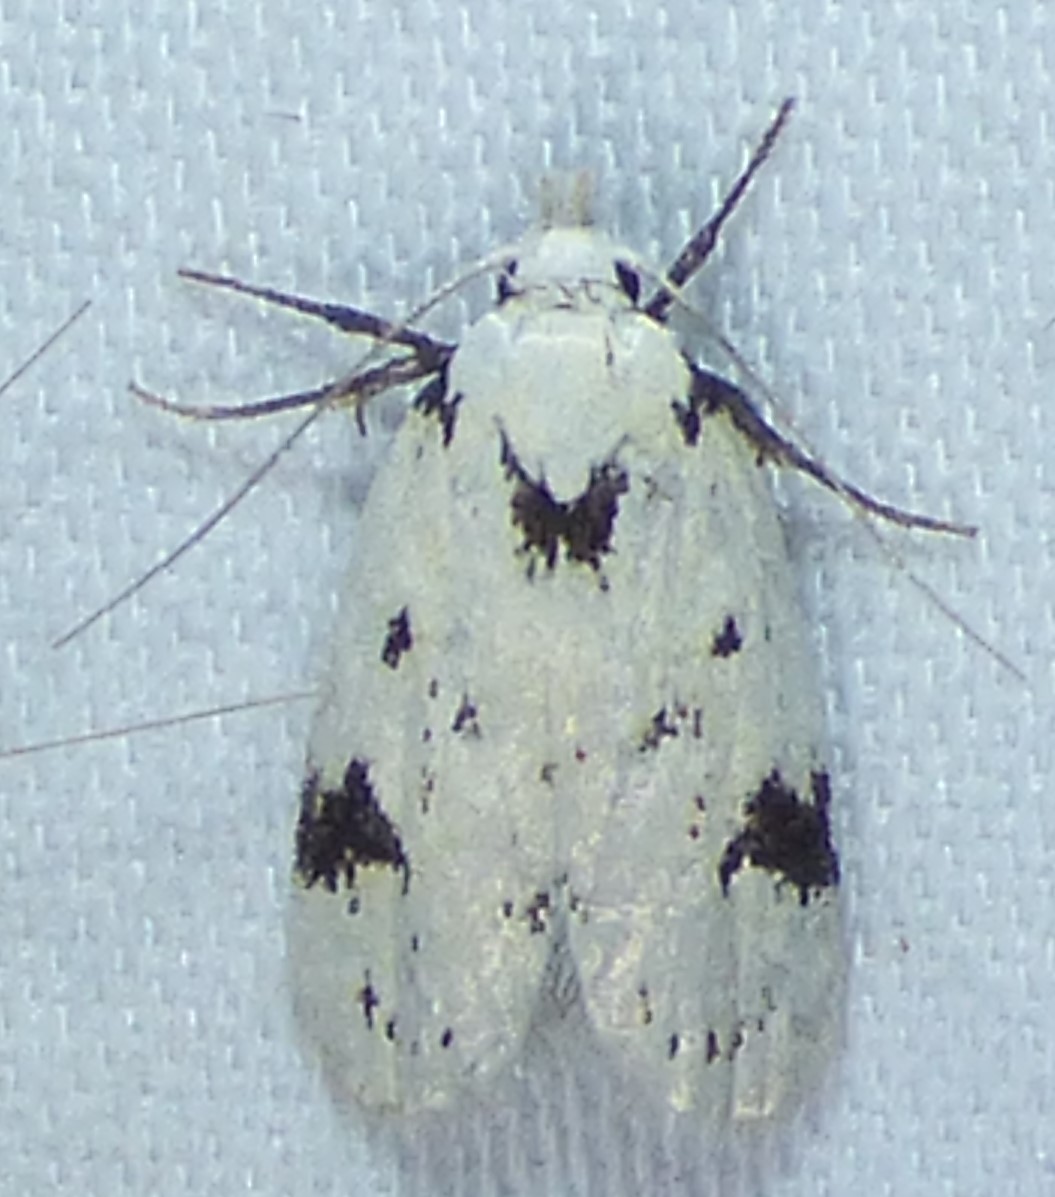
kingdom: Animalia
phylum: Arthropoda
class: Insecta
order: Lepidoptera
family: Oecophoridae
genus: Inga
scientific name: Inga sparsiciliella
